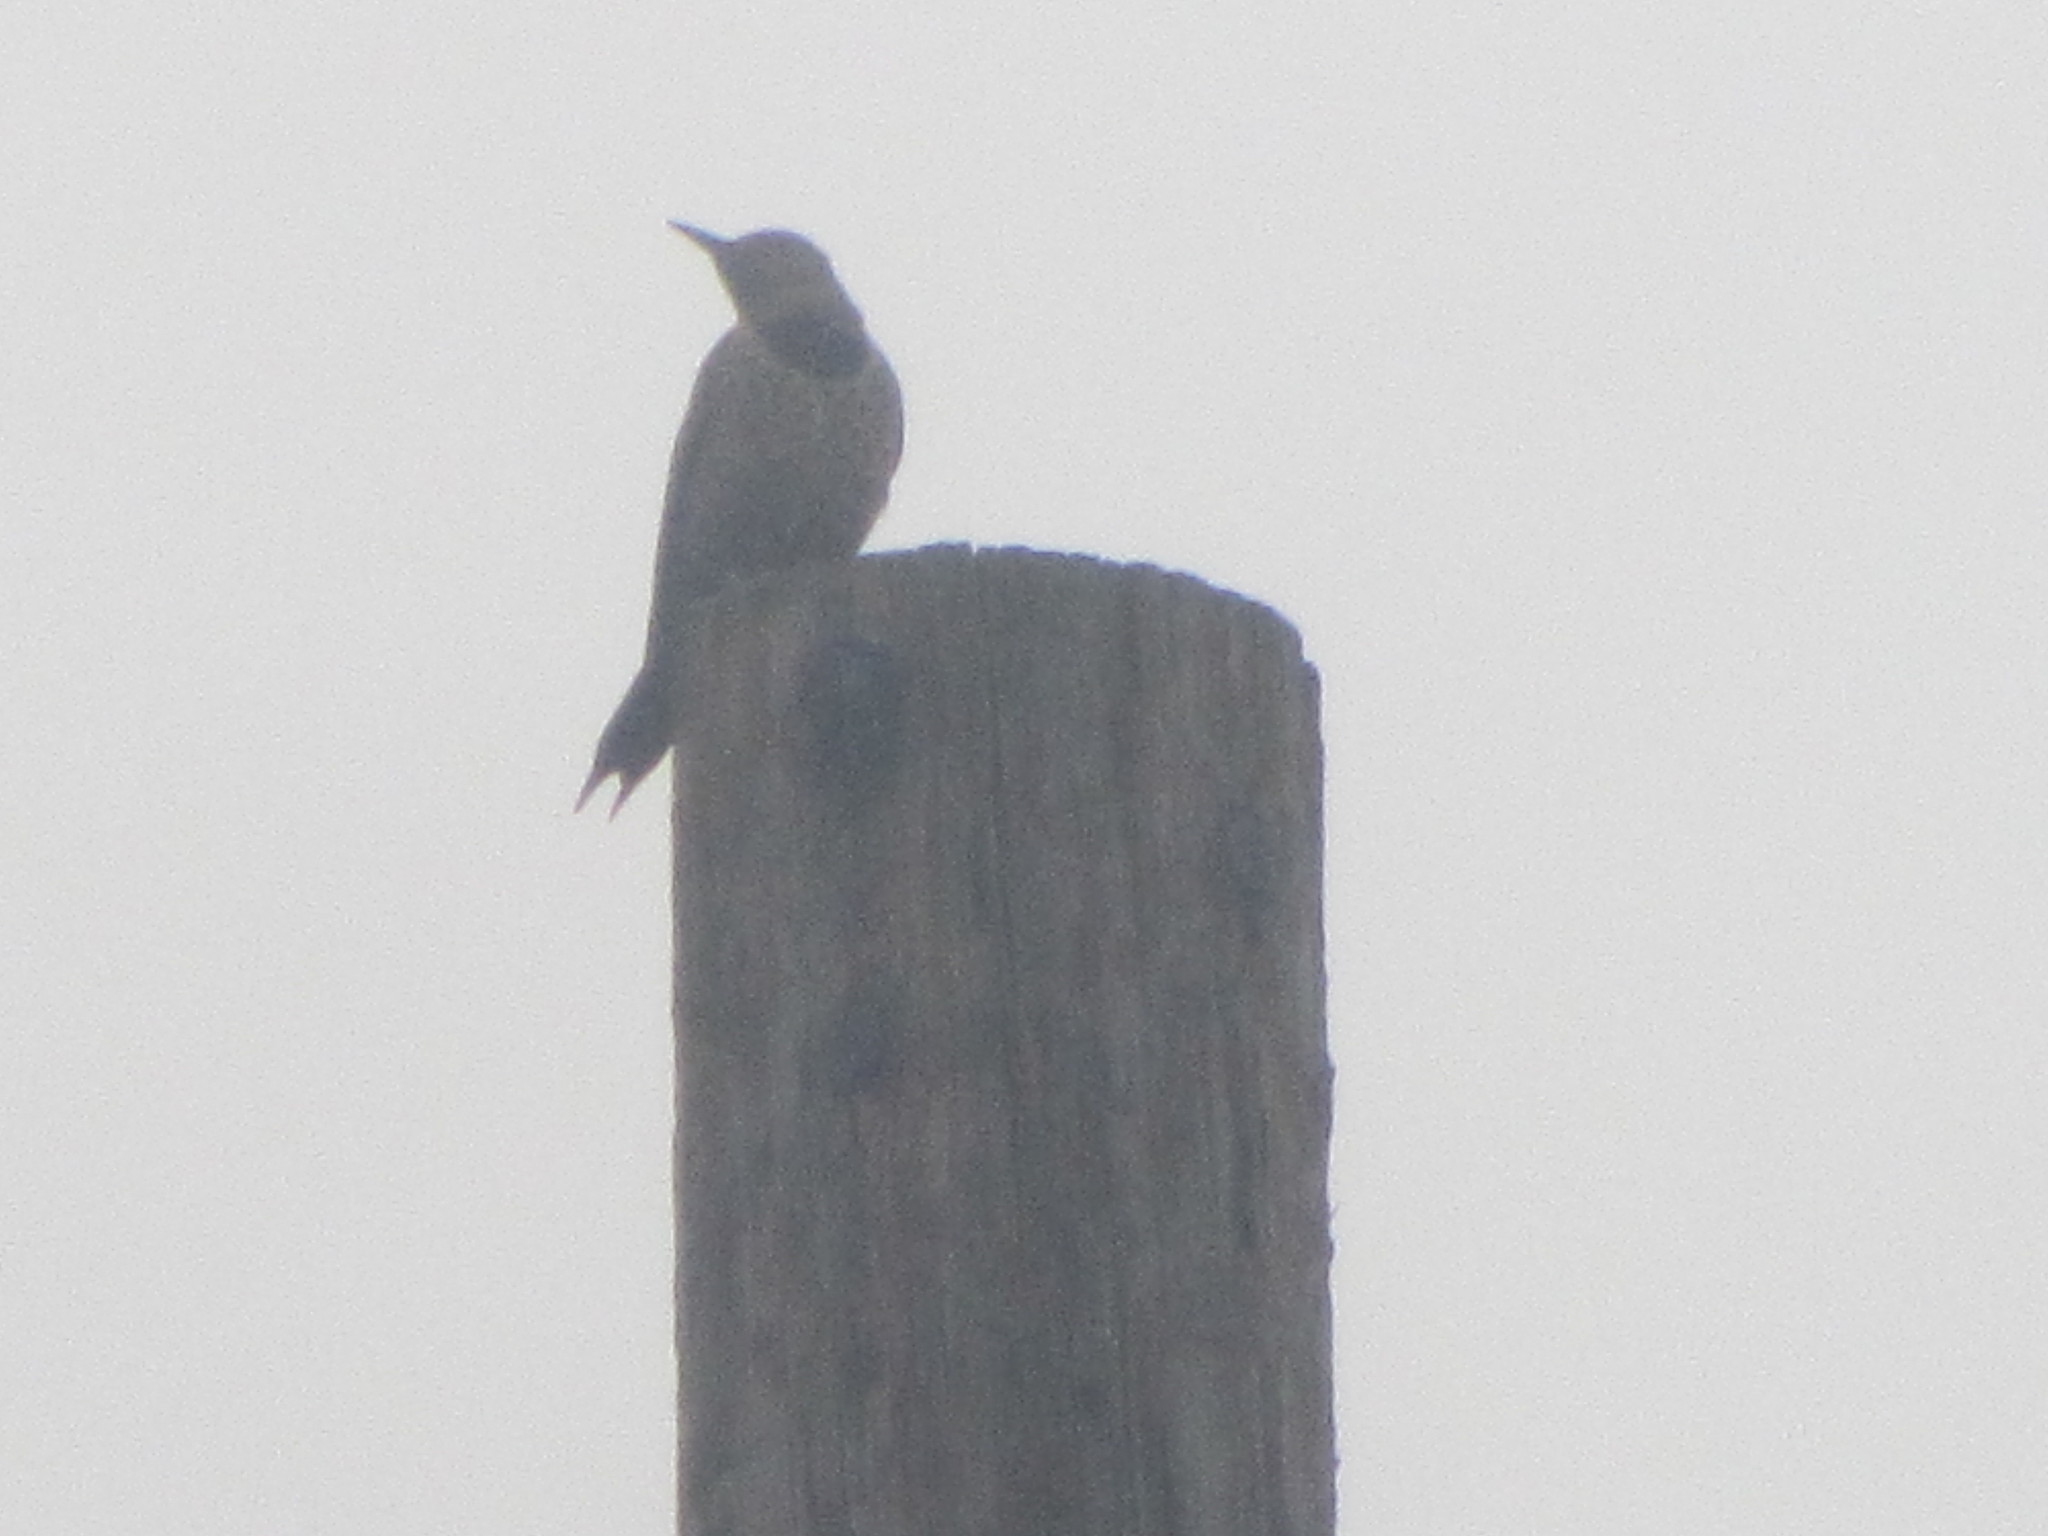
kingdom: Animalia
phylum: Chordata
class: Aves
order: Piciformes
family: Picidae
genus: Colaptes
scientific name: Colaptes auratus
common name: Northern flicker
